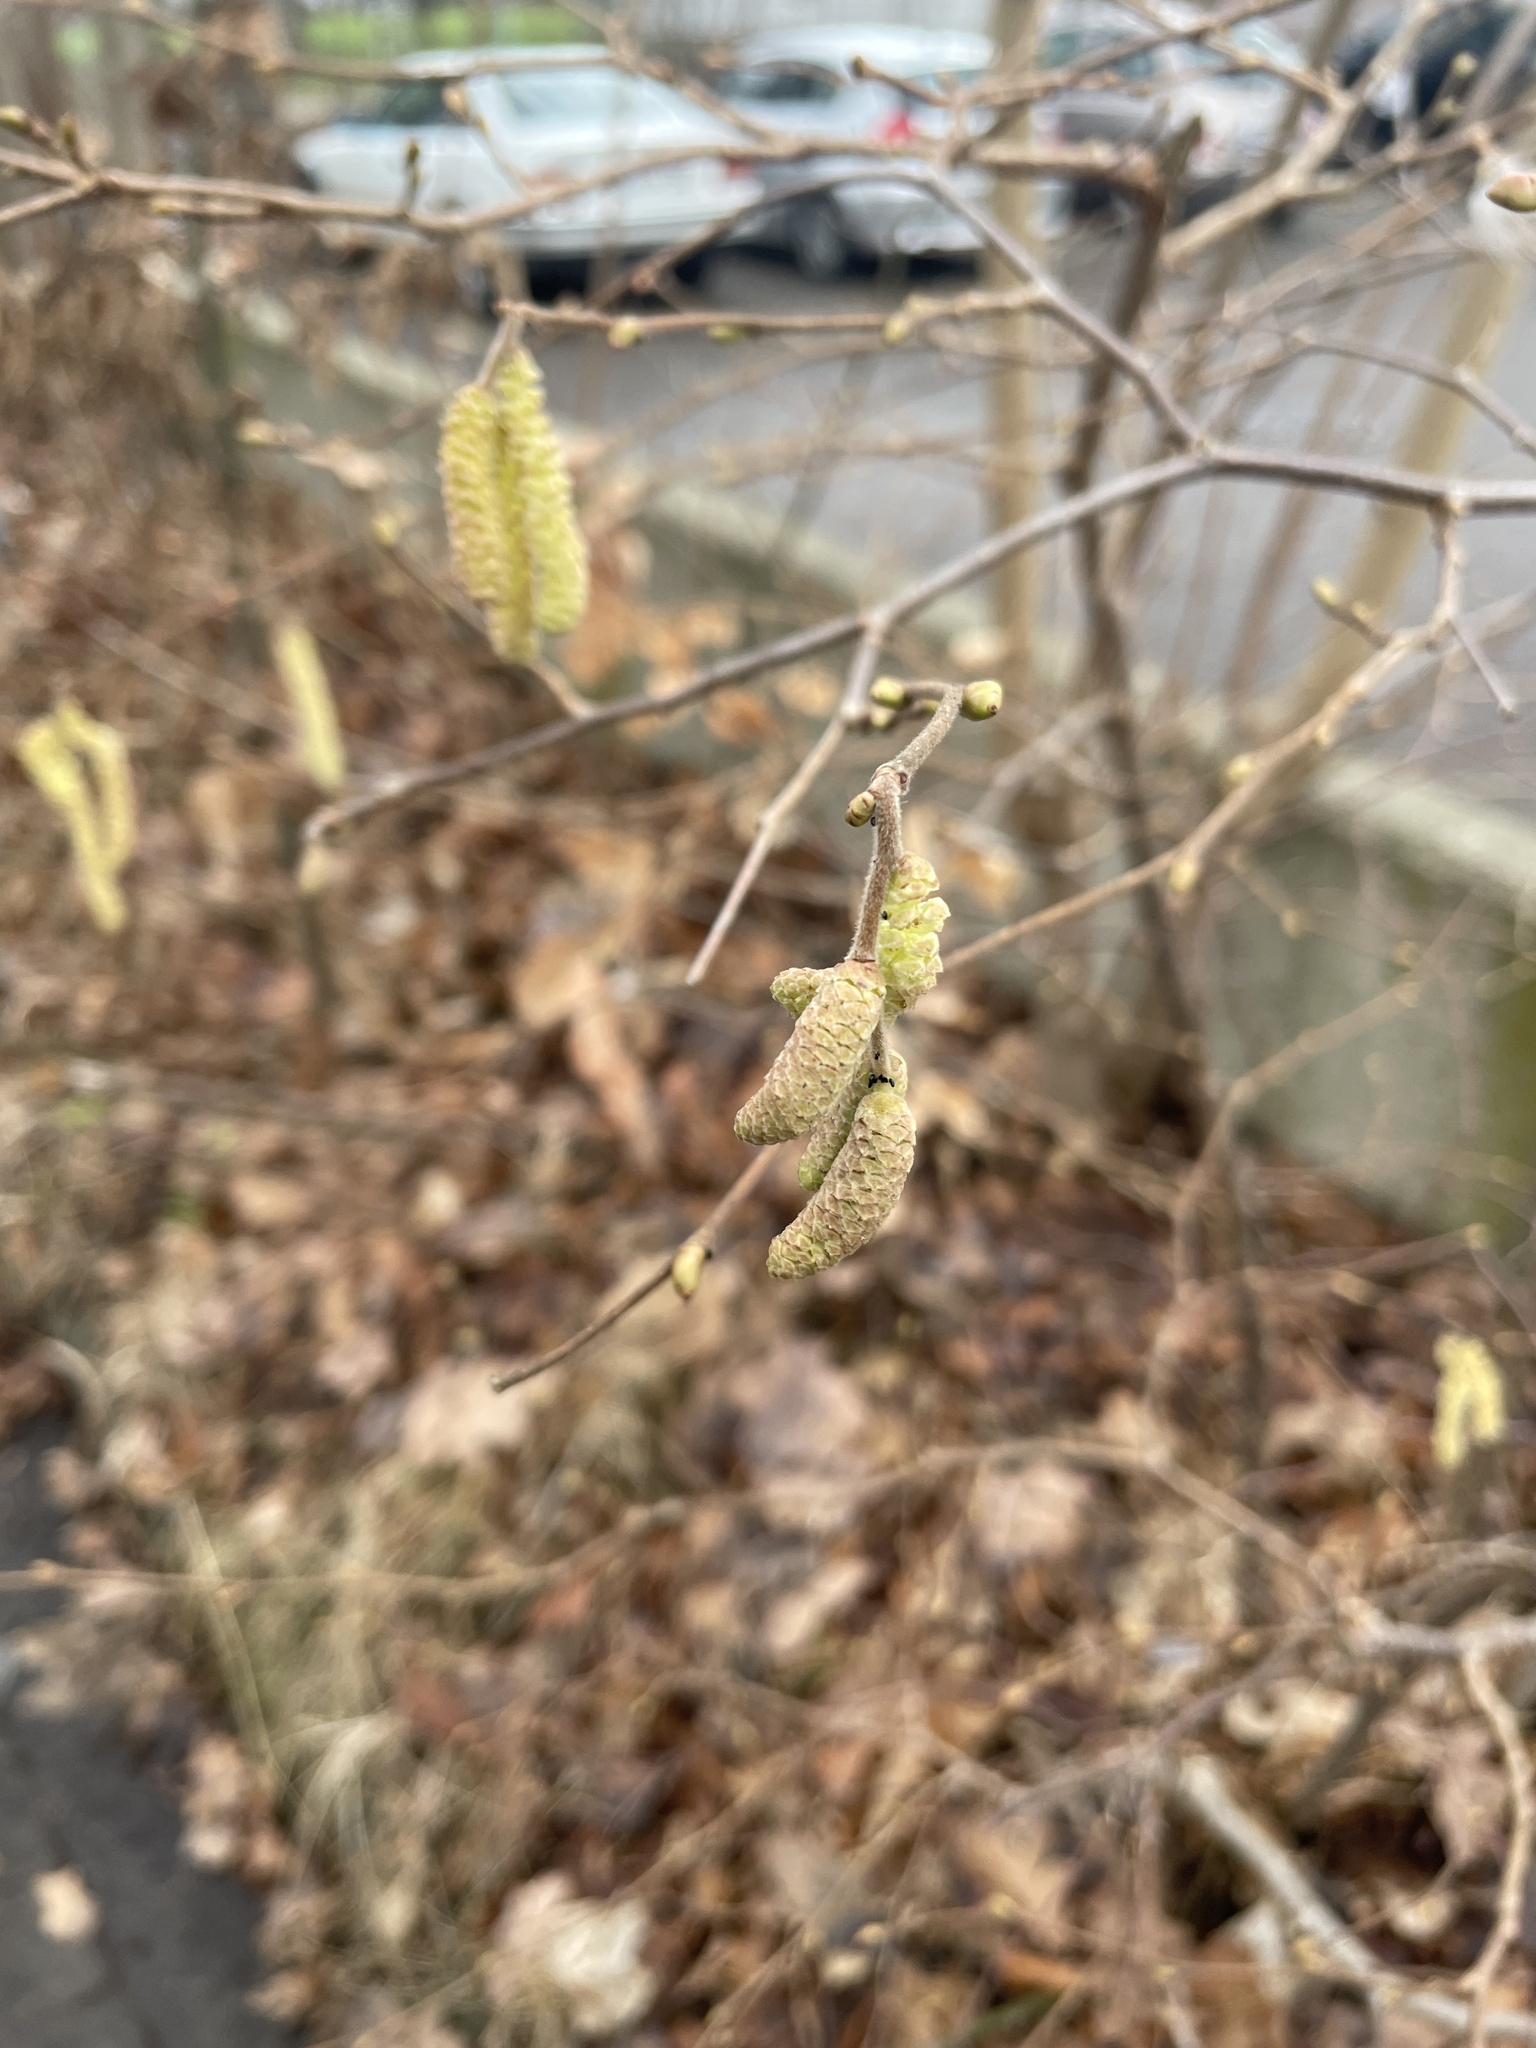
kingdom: Plantae
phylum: Tracheophyta
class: Magnoliopsida
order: Fagales
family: Betulaceae
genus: Corylus
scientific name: Corylus avellana
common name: European hazel
